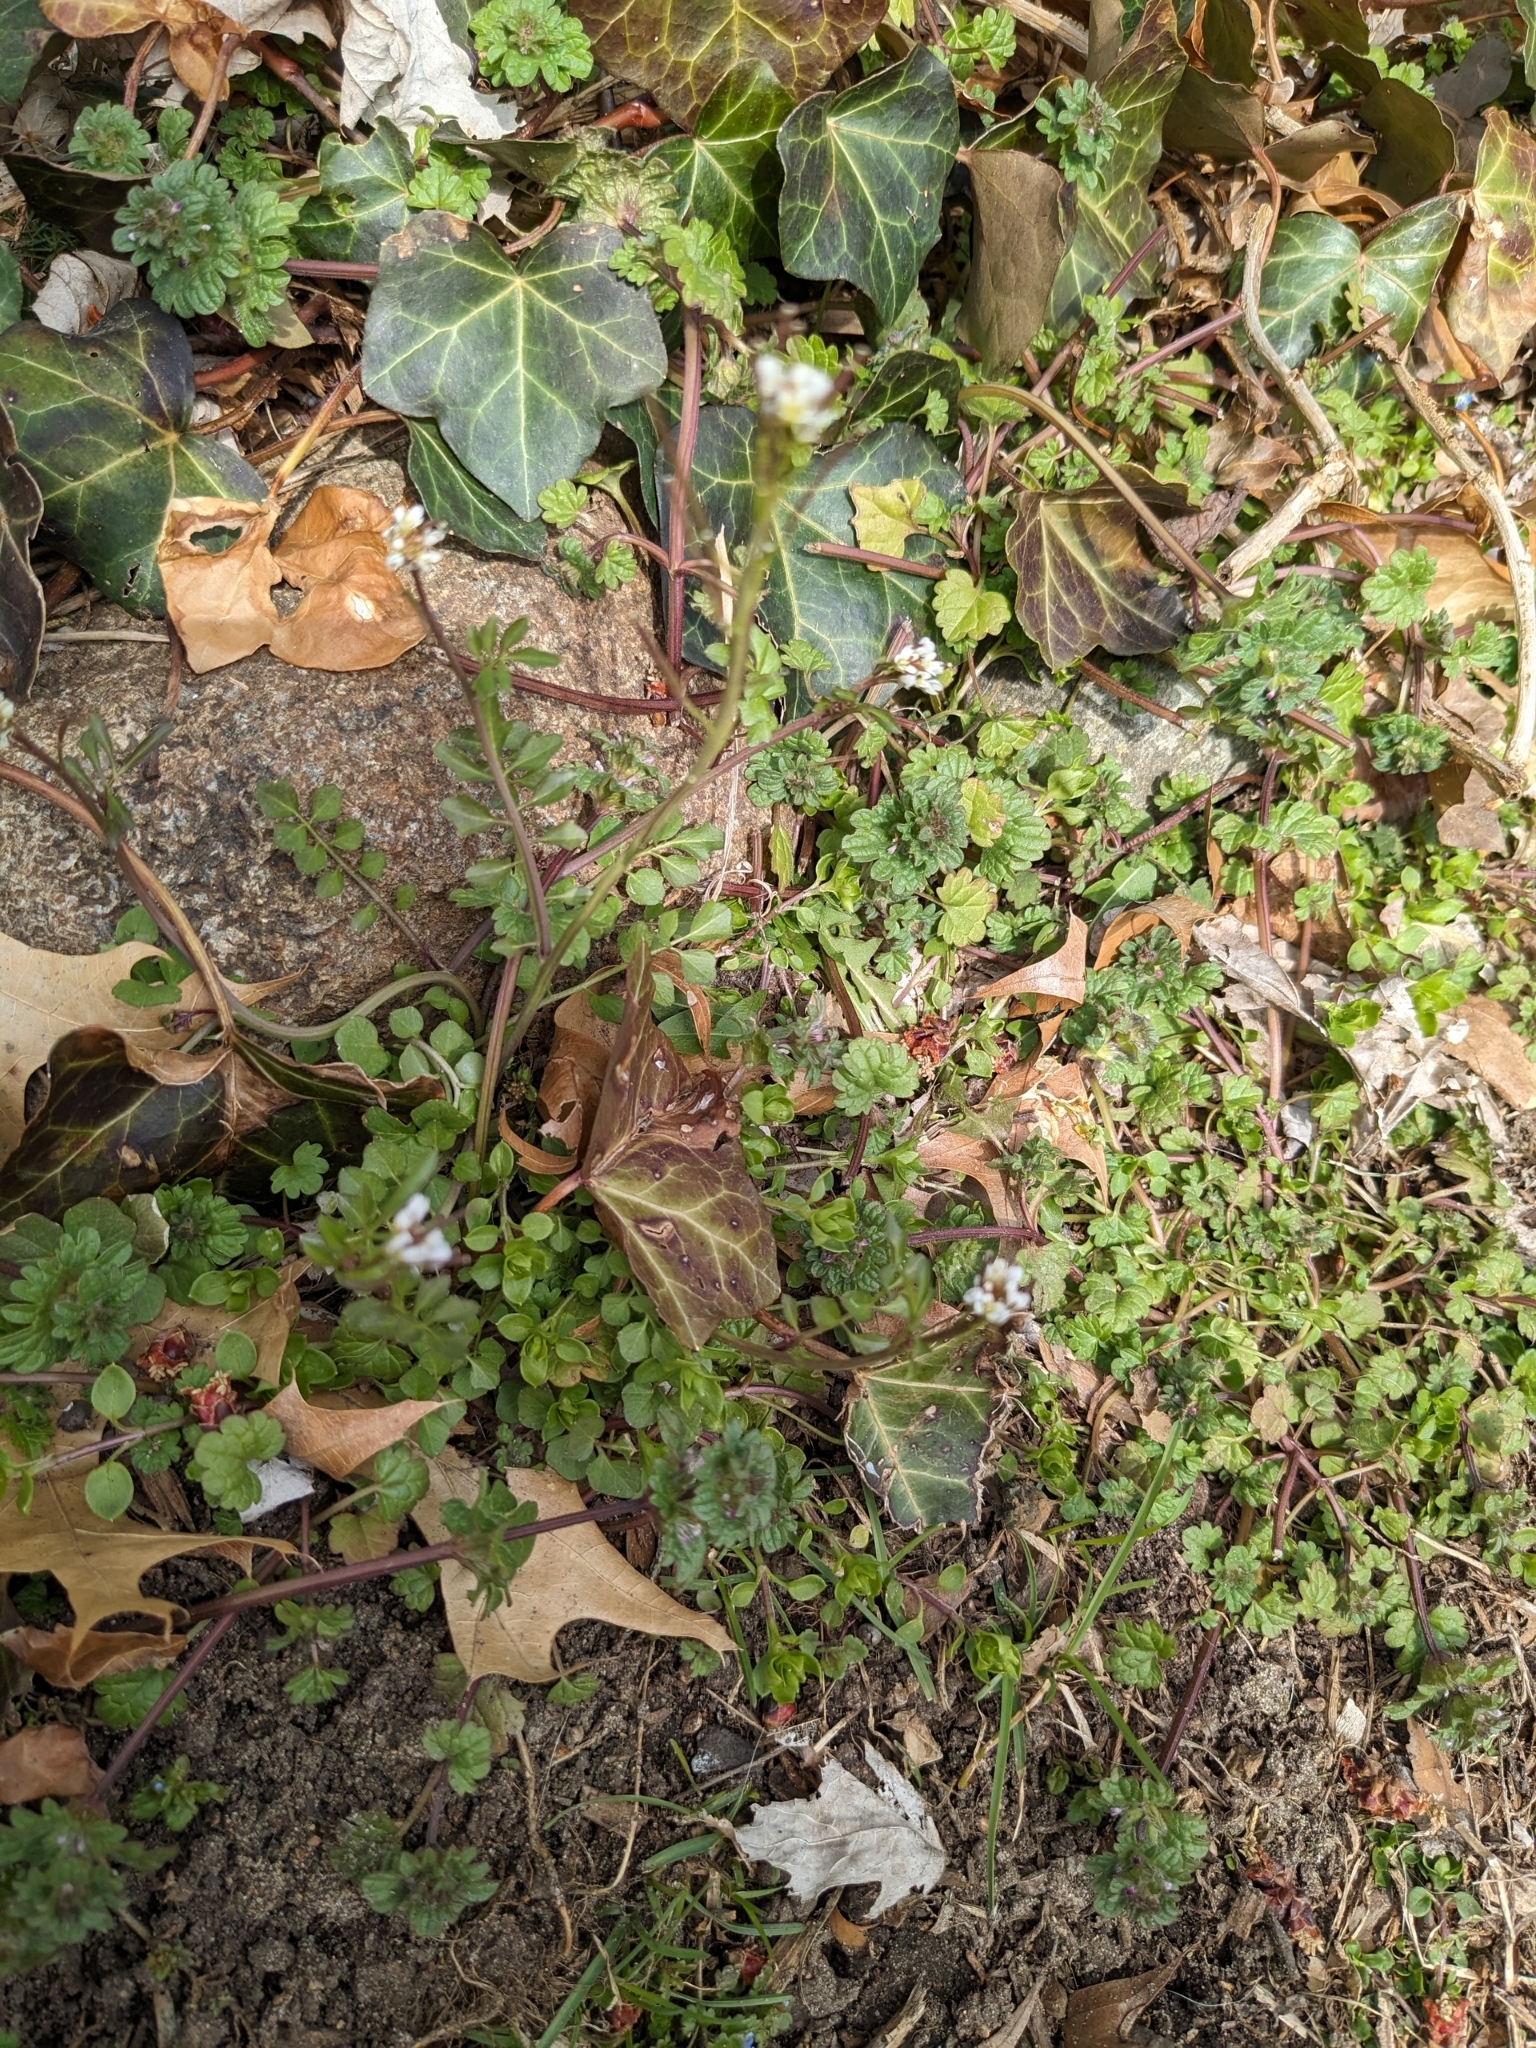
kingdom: Plantae
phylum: Tracheophyta
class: Magnoliopsida
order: Brassicales
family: Brassicaceae
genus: Cardamine
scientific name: Cardamine hirsuta
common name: Hairy bittercress
